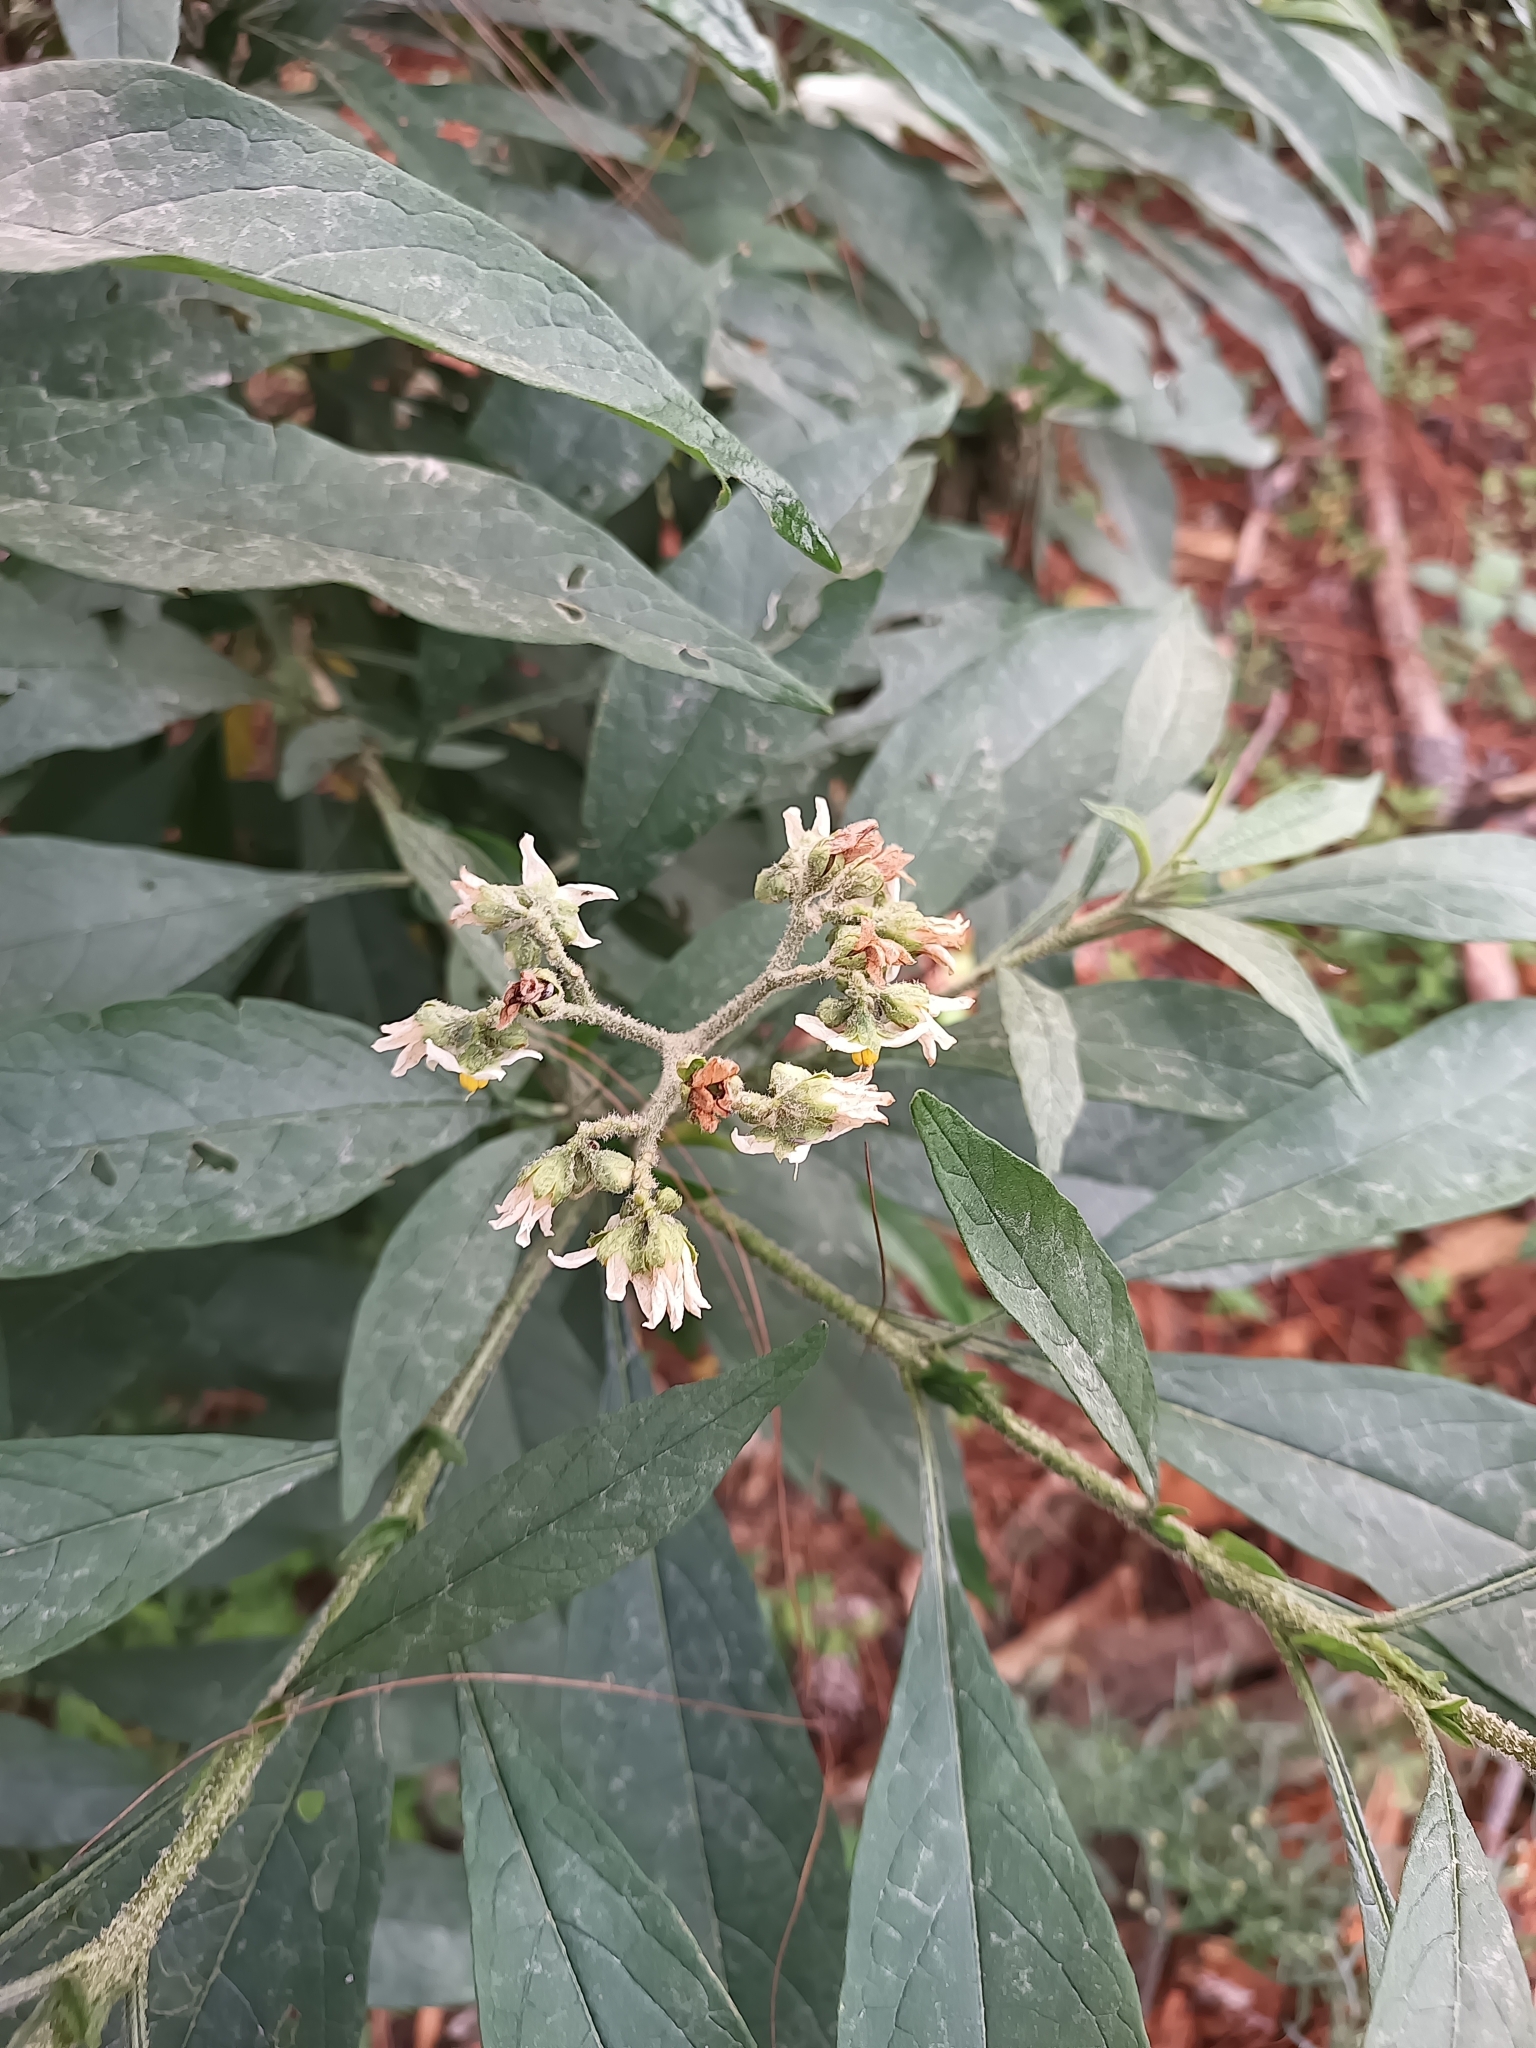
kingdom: Plantae
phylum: Tracheophyta
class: Magnoliopsida
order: Solanales
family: Solanaceae
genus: Solanum
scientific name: Solanum umbellatum
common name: Nightshade
